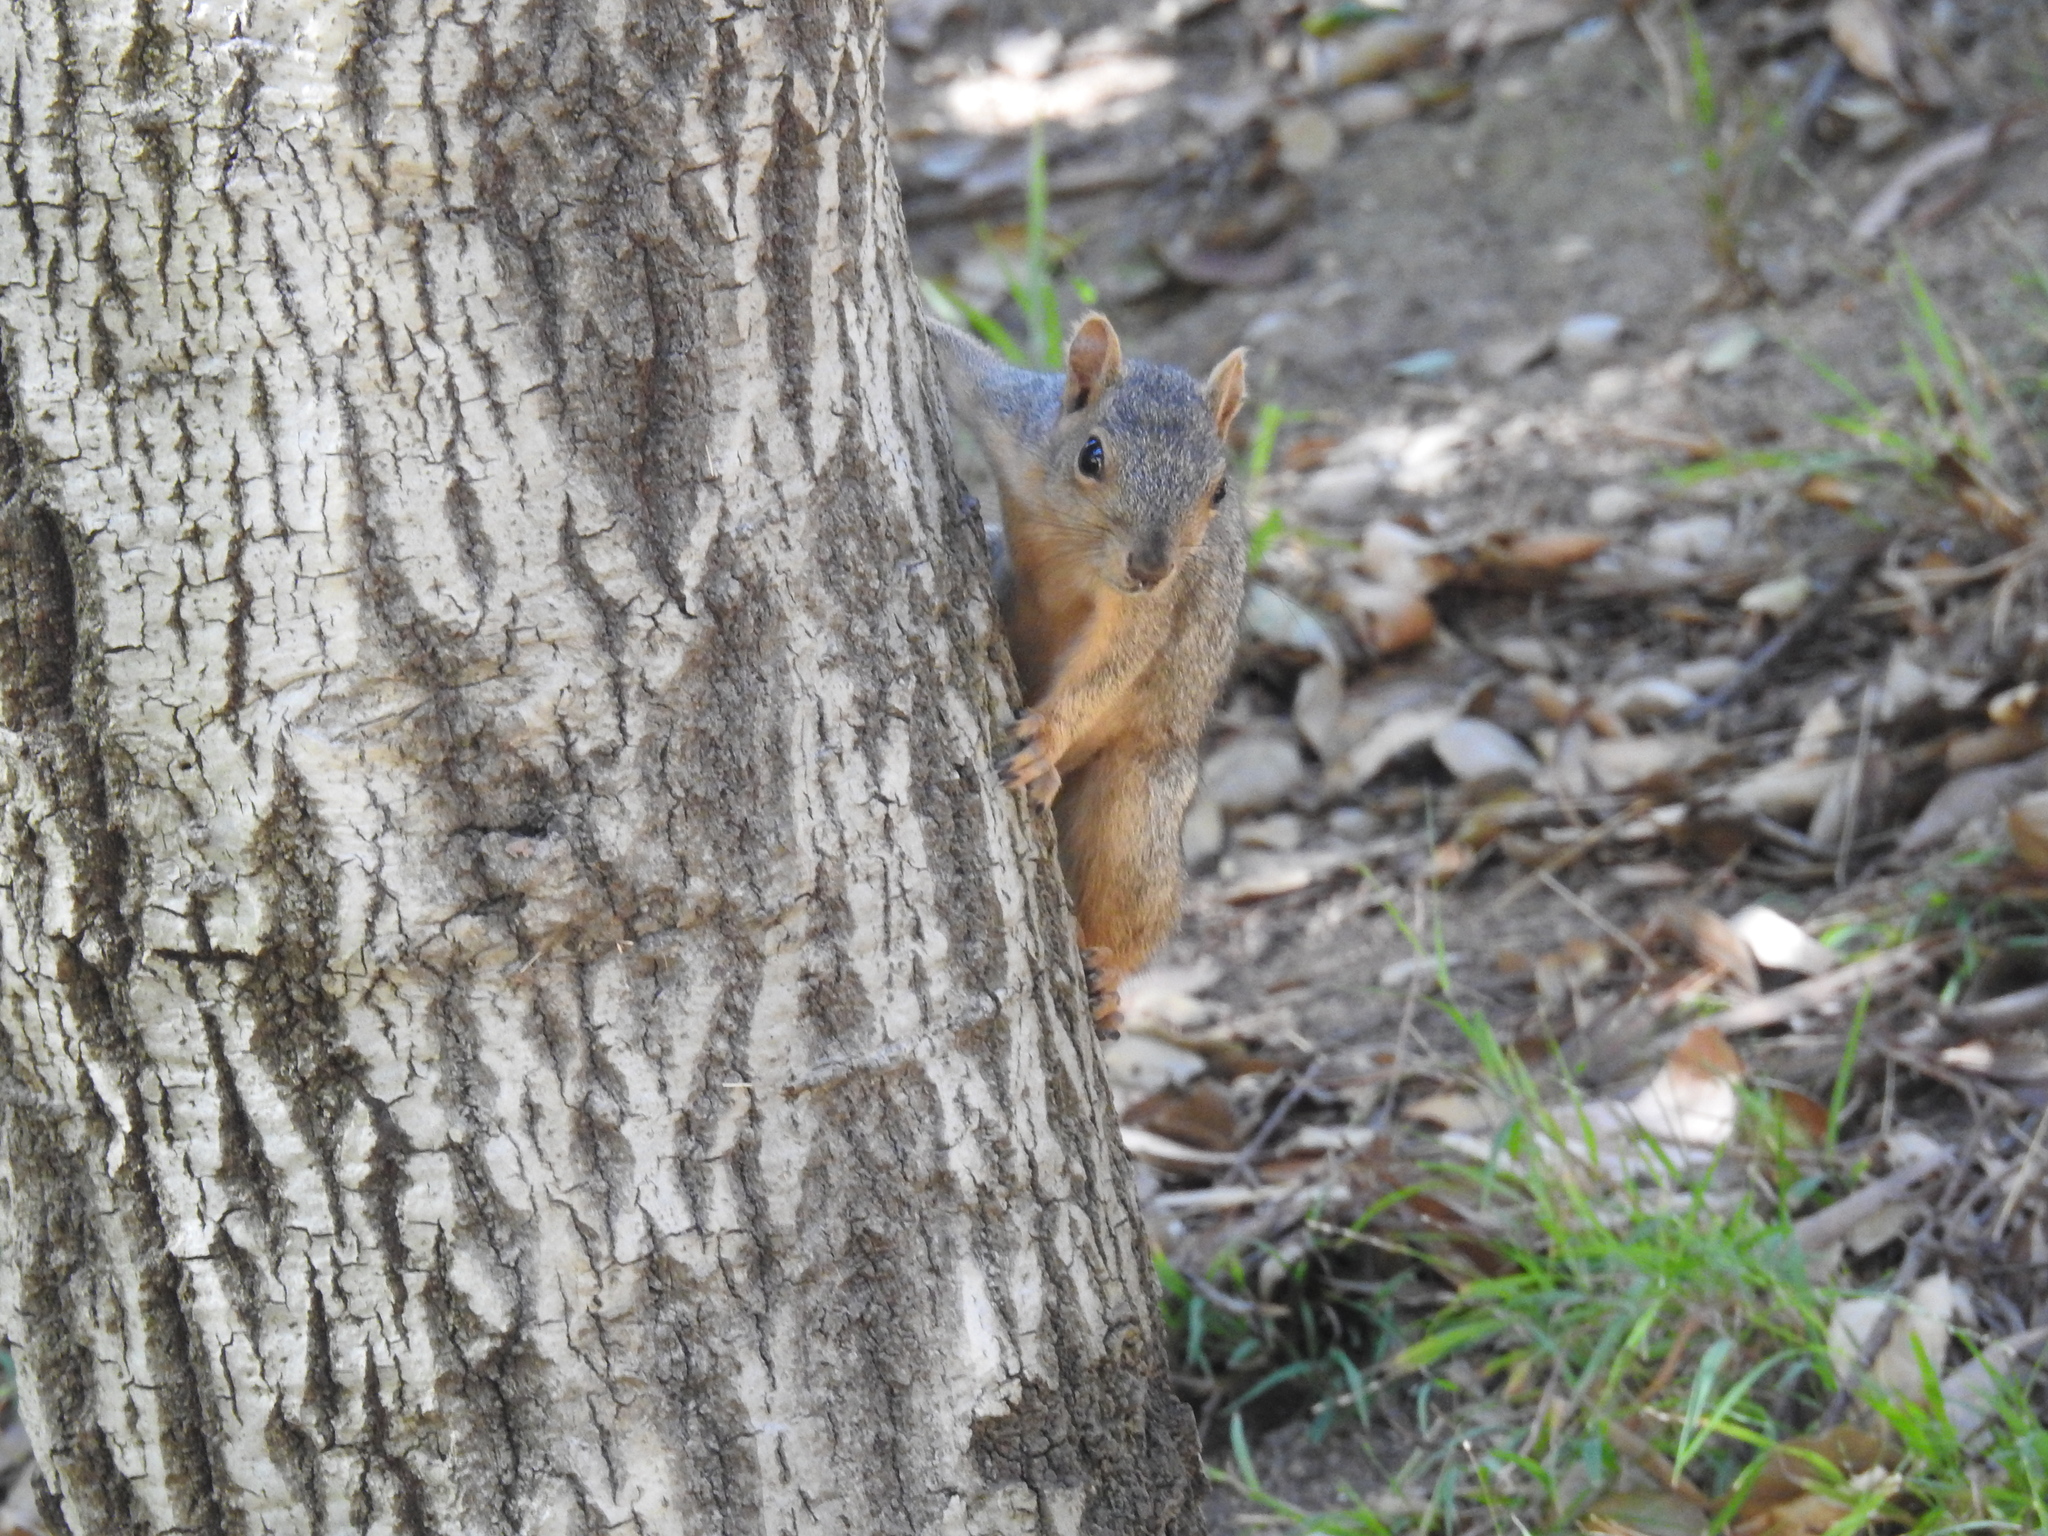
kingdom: Animalia
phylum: Chordata
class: Mammalia
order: Rodentia
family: Sciuridae
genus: Sciurus
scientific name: Sciurus niger
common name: Fox squirrel
